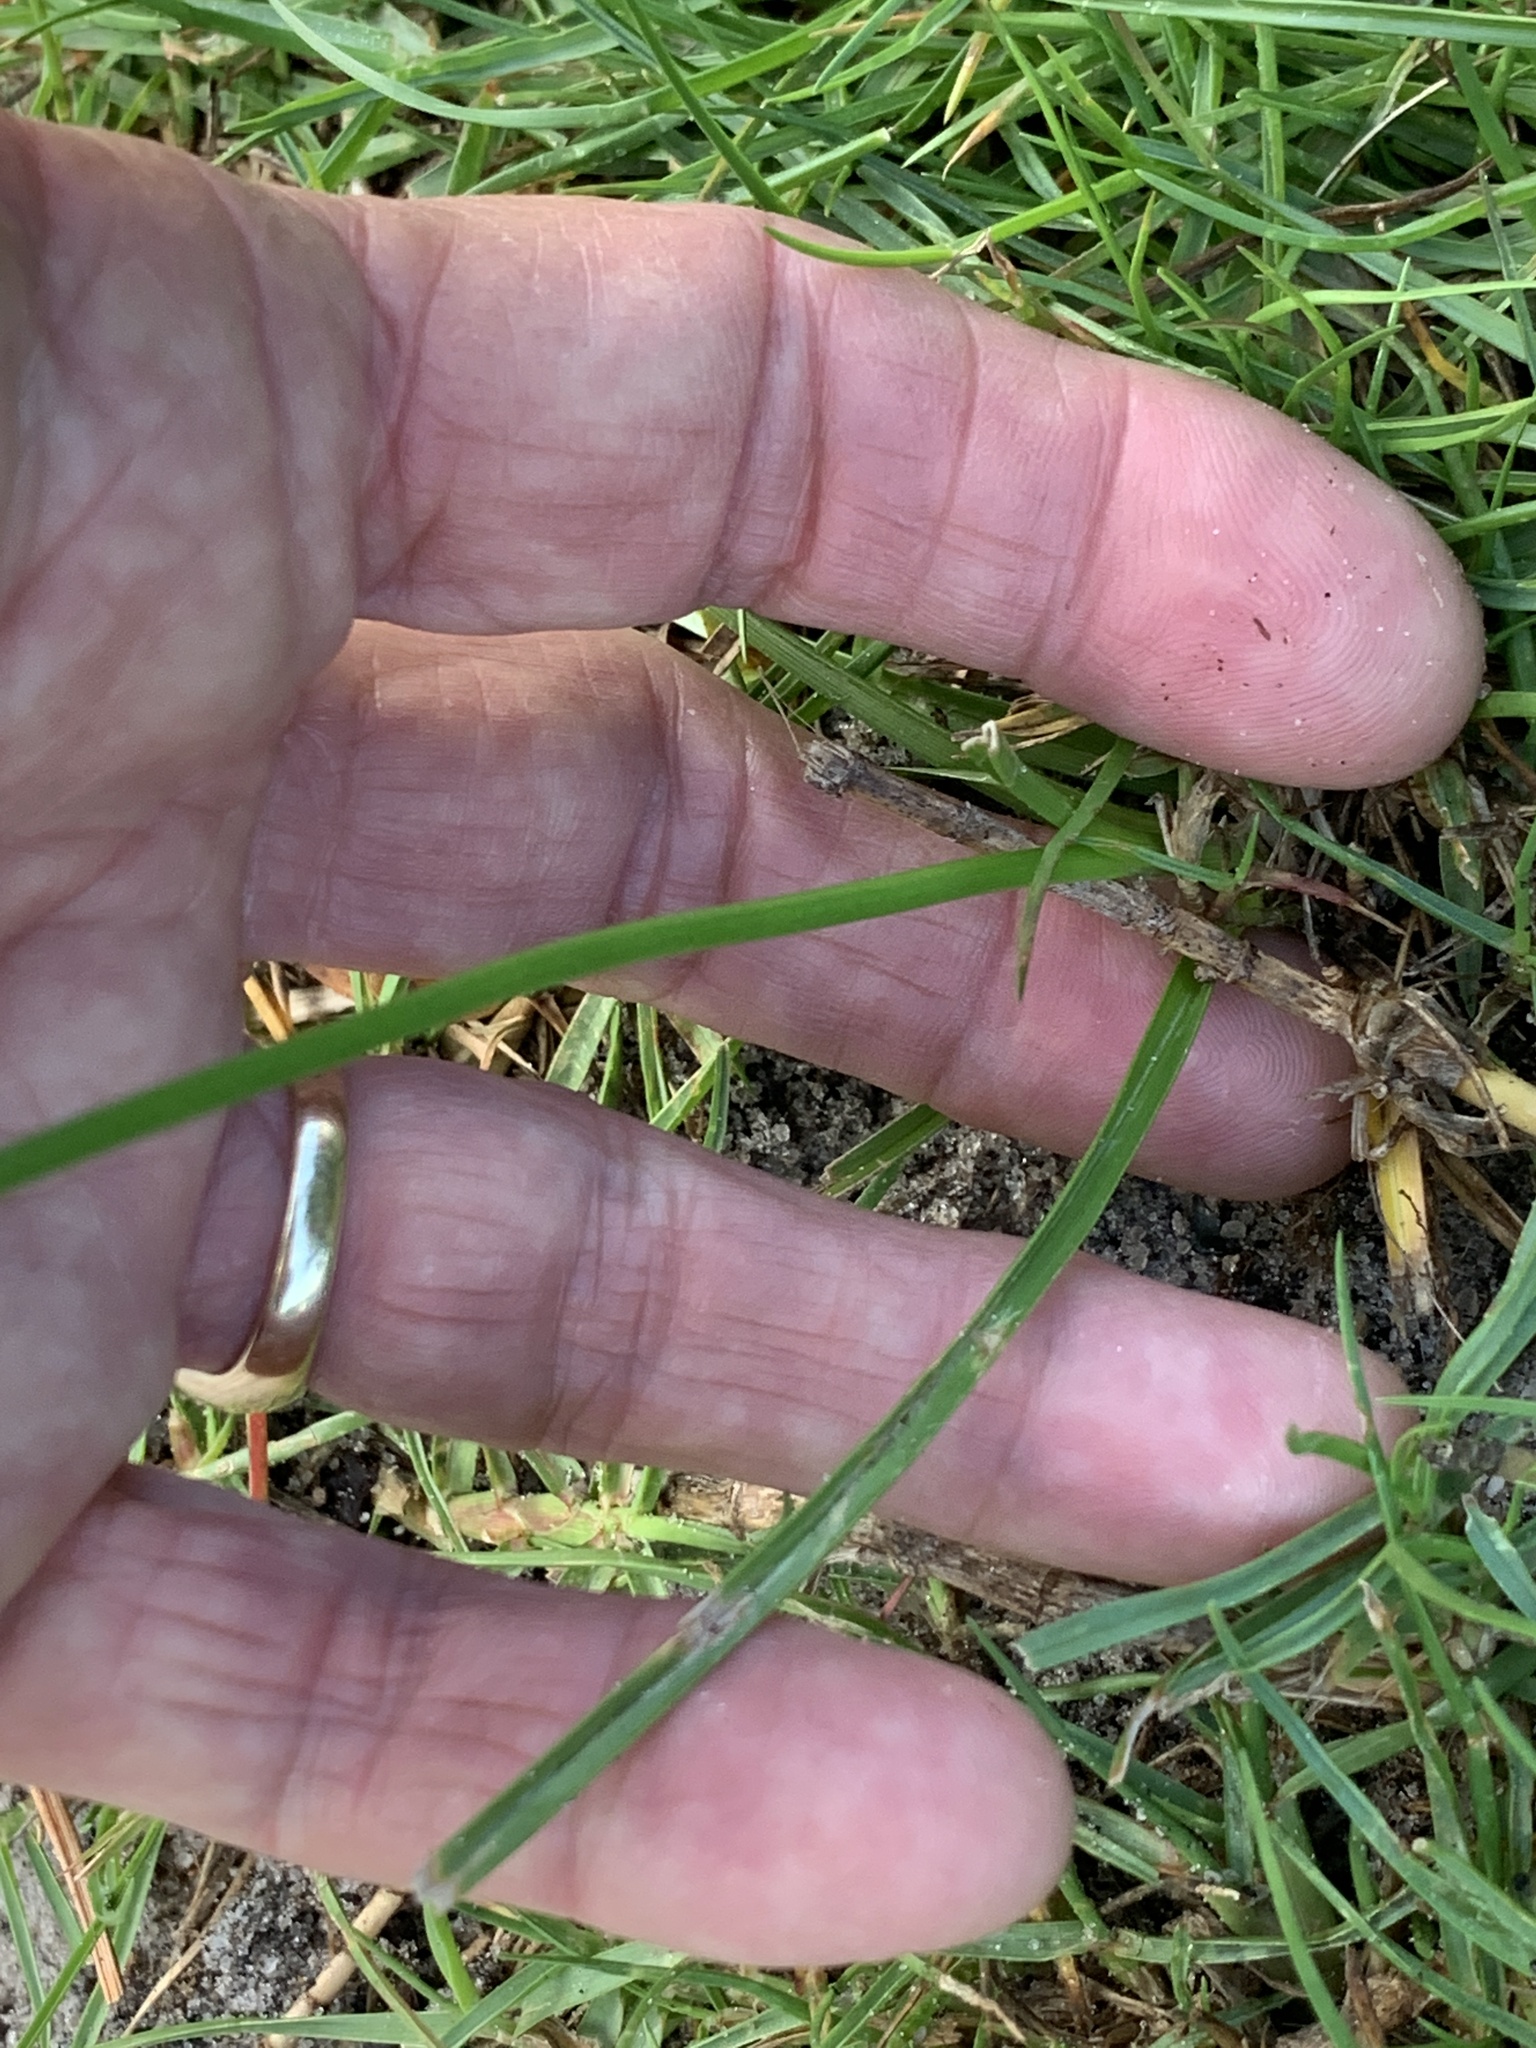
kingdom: Plantae
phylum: Tracheophyta
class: Liliopsida
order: Poales
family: Cyperaceae
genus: Cyperus
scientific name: Cyperus surinamensis
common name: Tropical flat sedge
